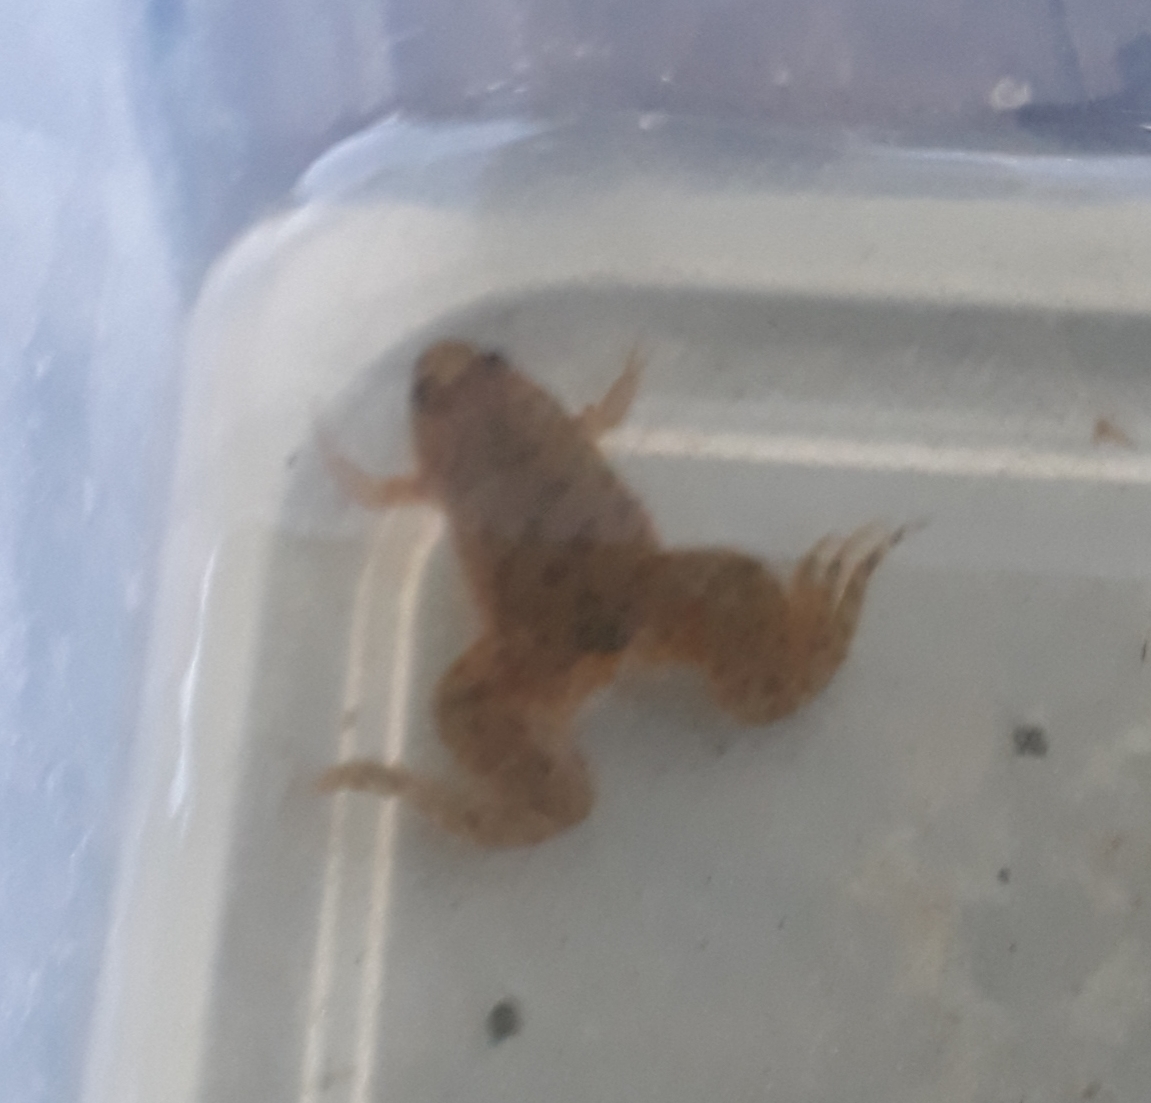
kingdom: Animalia
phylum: Chordata
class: Amphibia
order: Anura
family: Pipidae
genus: Xenopus
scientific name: Xenopus laevis
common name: African clawed frog
